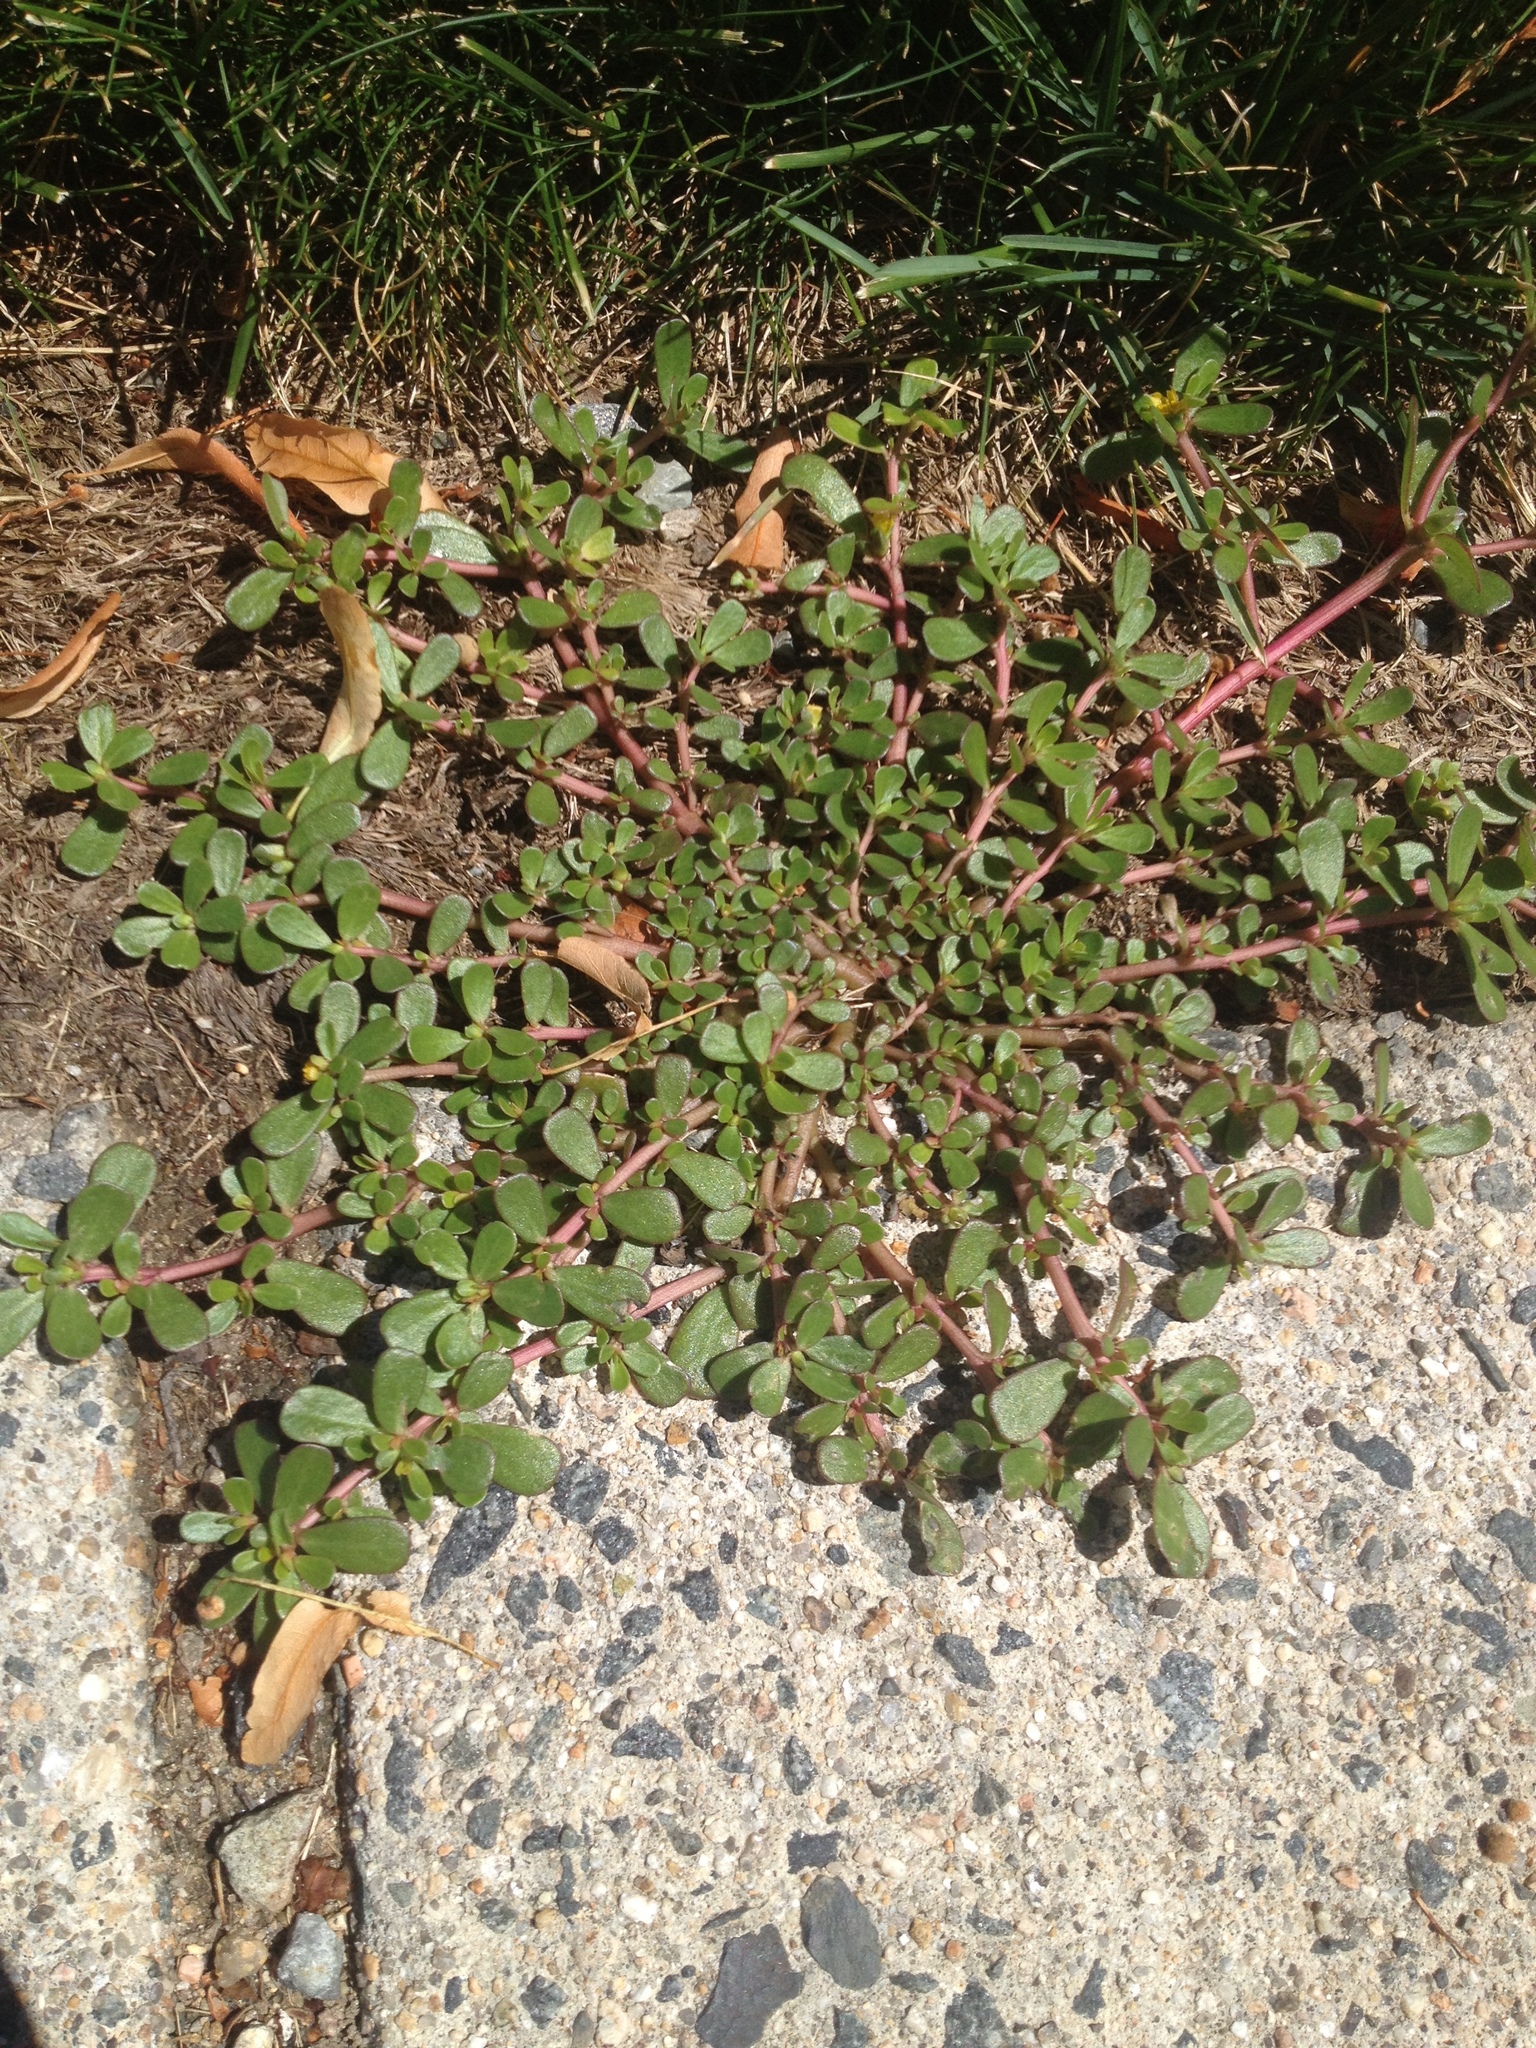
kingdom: Plantae
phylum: Tracheophyta
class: Magnoliopsida
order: Caryophyllales
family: Portulacaceae
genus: Portulaca
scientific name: Portulaca oleracea
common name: Common purslane
